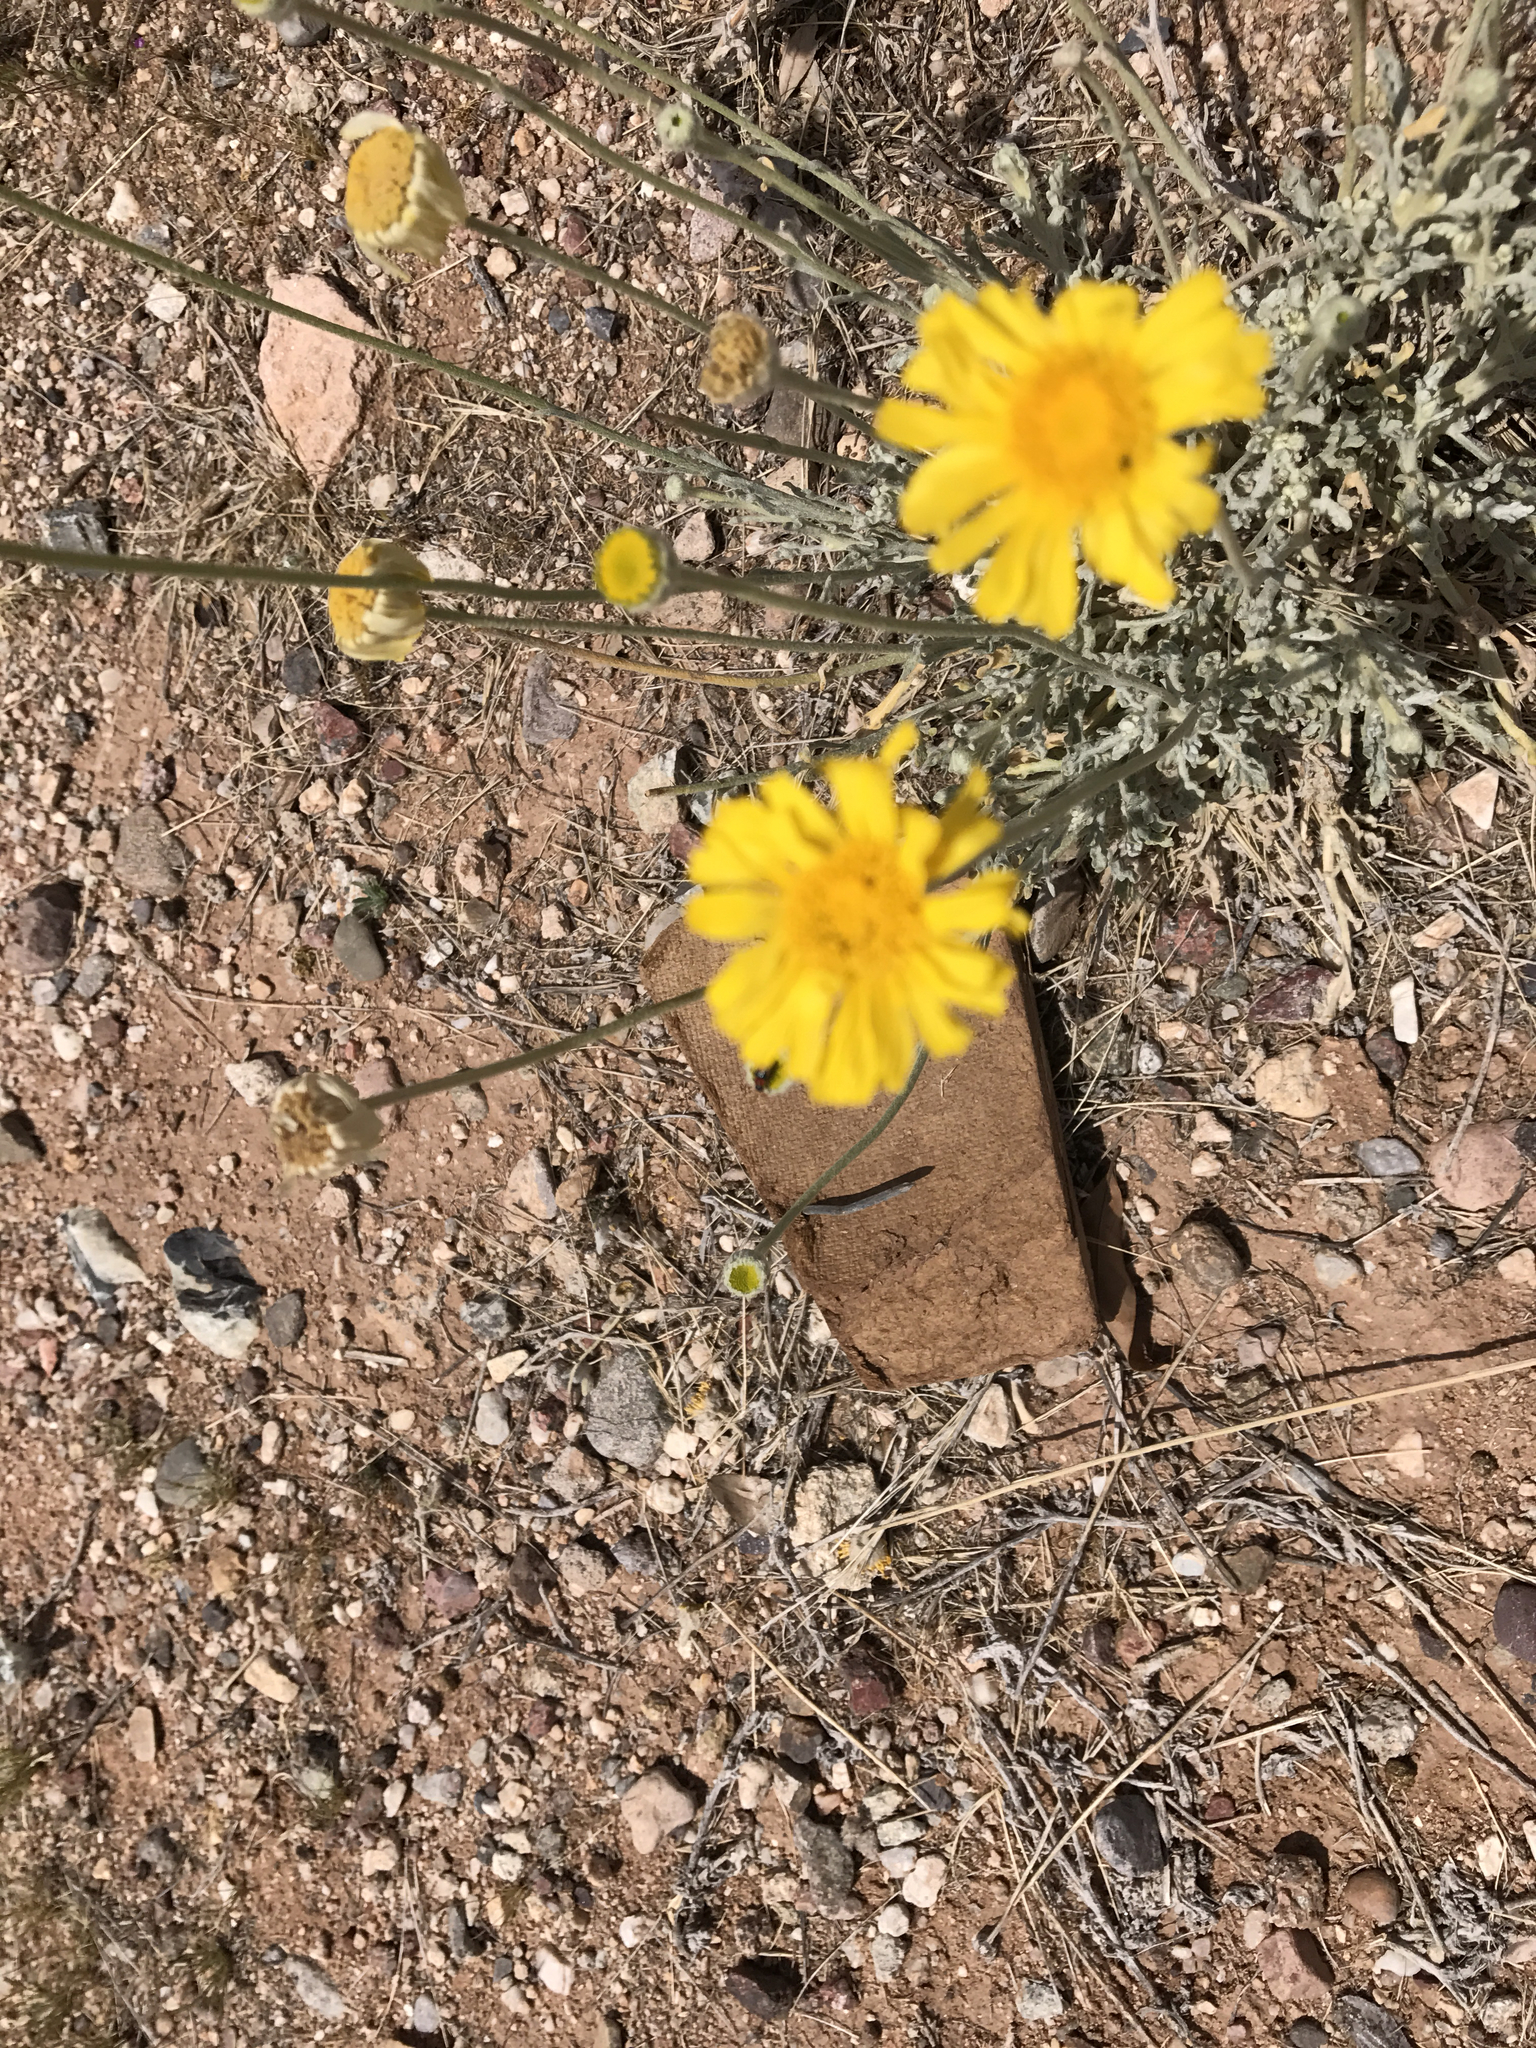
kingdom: Plantae
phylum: Tracheophyta
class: Magnoliopsida
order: Asterales
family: Asteraceae
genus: Baileya
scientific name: Baileya multiradiata
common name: Desert-marigold
